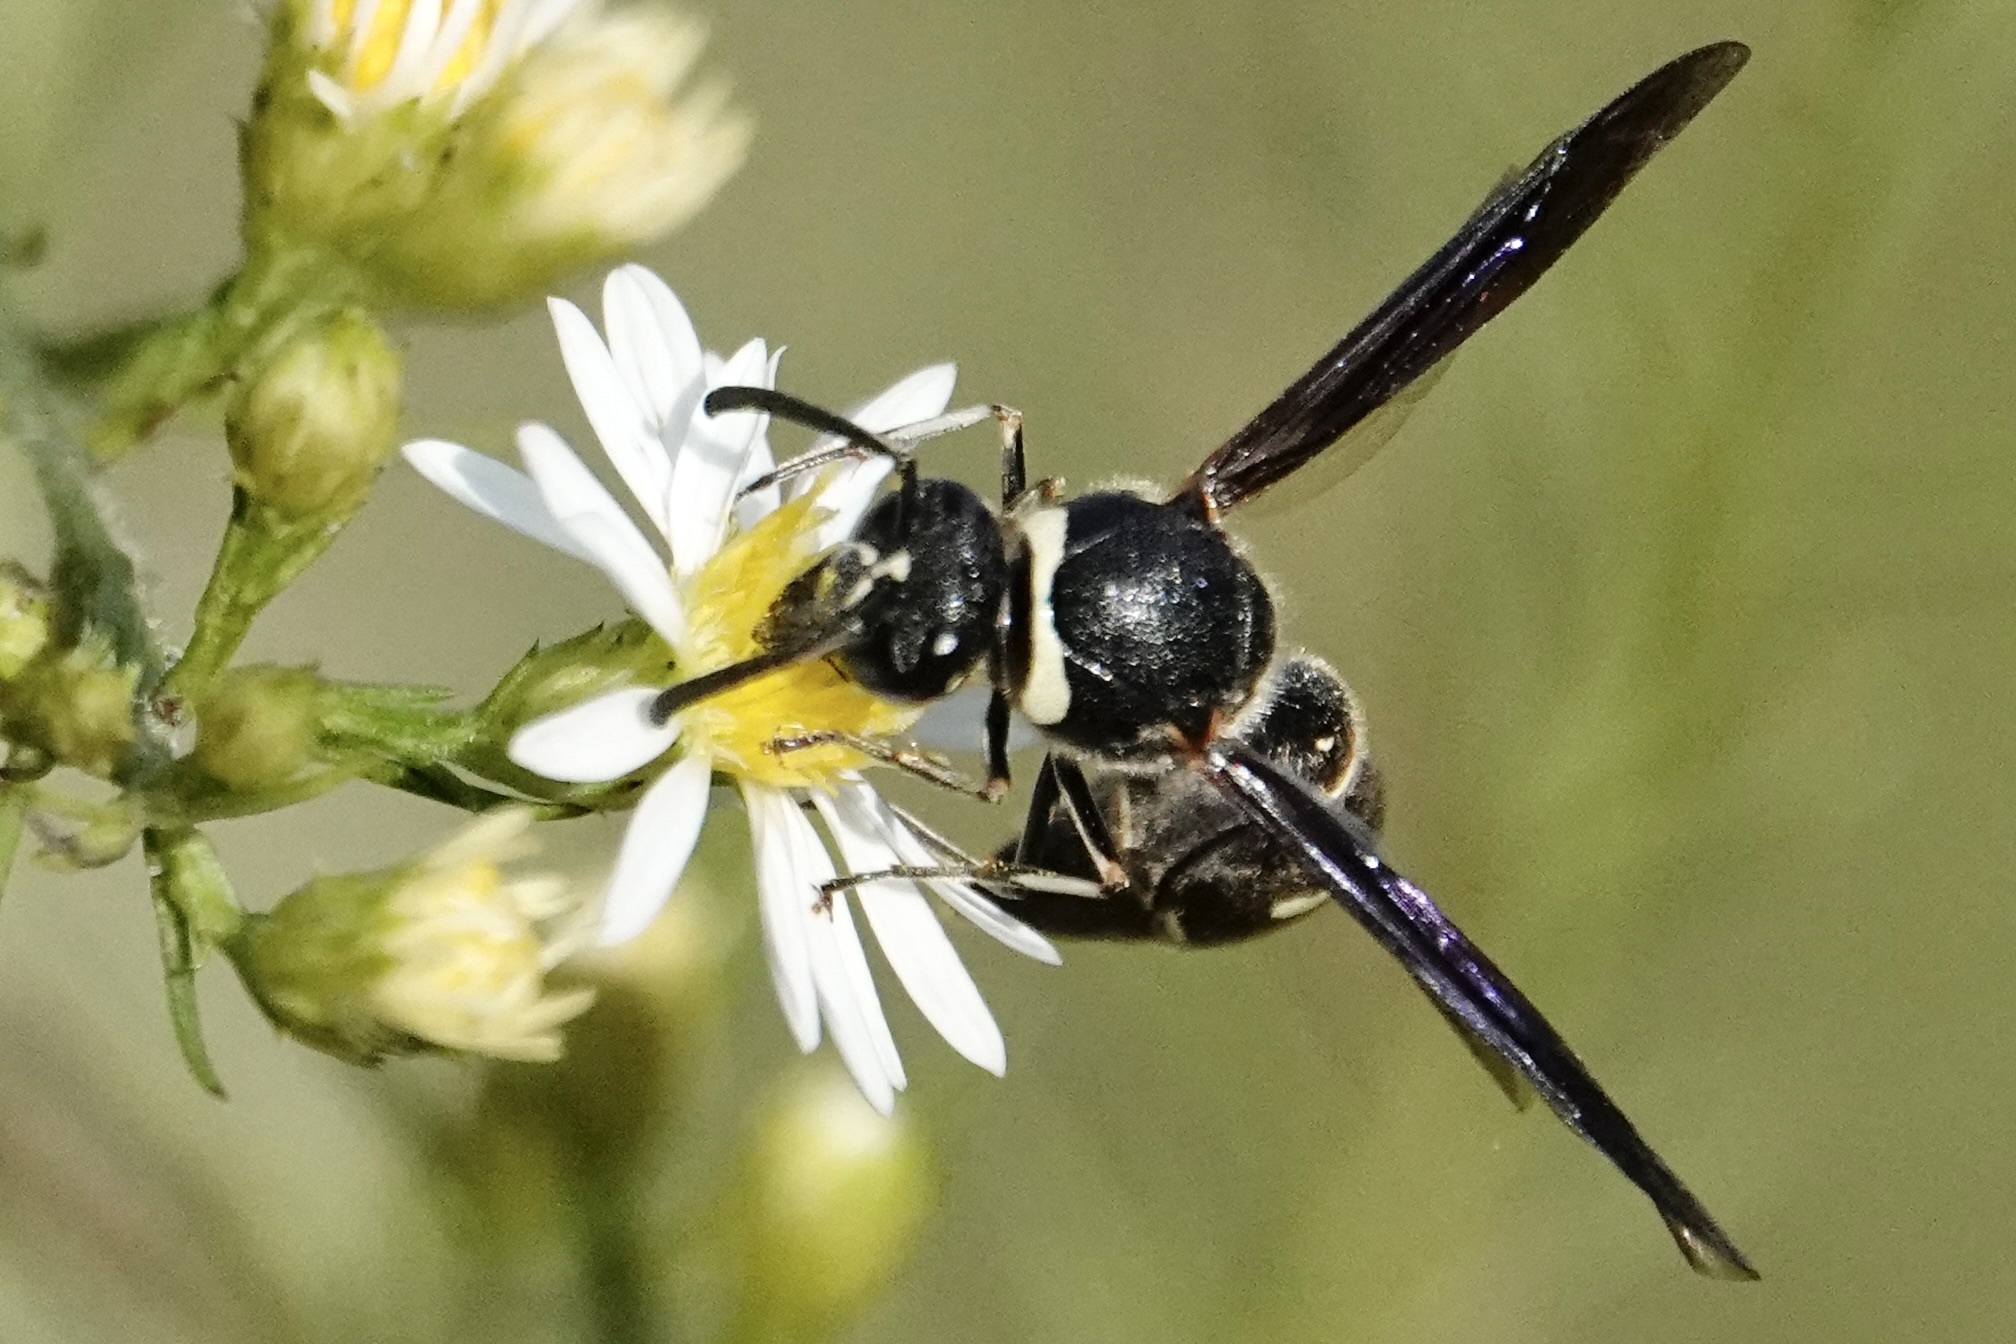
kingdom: Animalia
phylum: Arthropoda
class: Insecta
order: Hymenoptera
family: Vespidae
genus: Eumenes
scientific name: Eumenes fraternus
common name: Fraternal potter wasp
